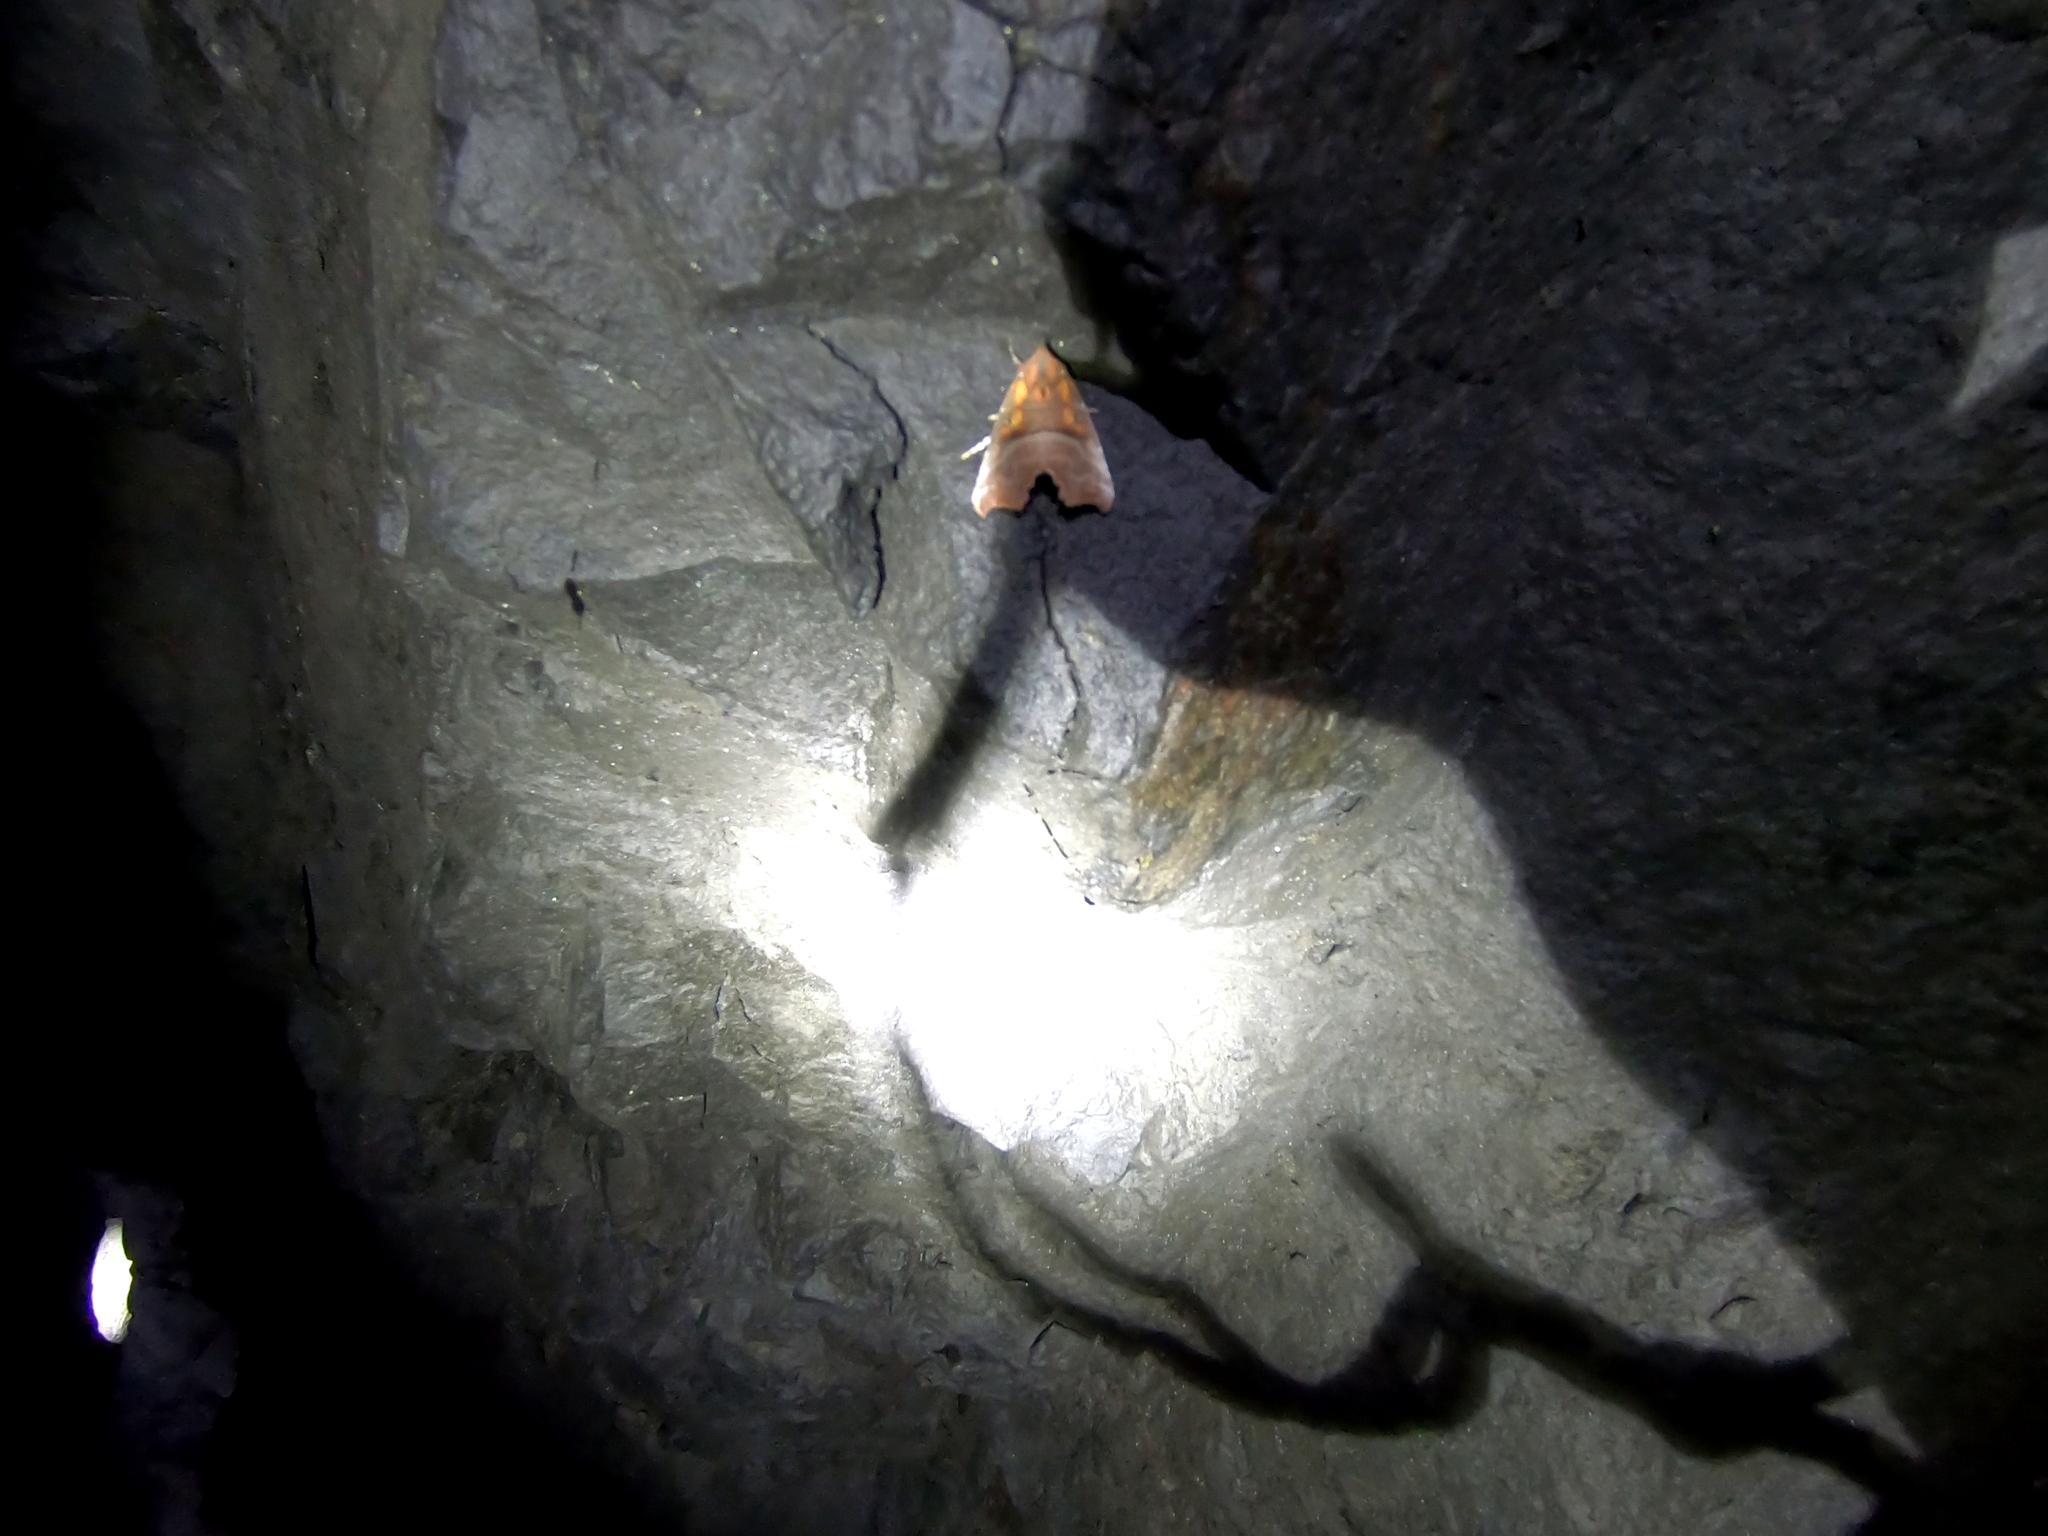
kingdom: Animalia
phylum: Arthropoda
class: Insecta
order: Lepidoptera
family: Erebidae
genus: Scoliopteryx
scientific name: Scoliopteryx libatrix
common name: Herald
